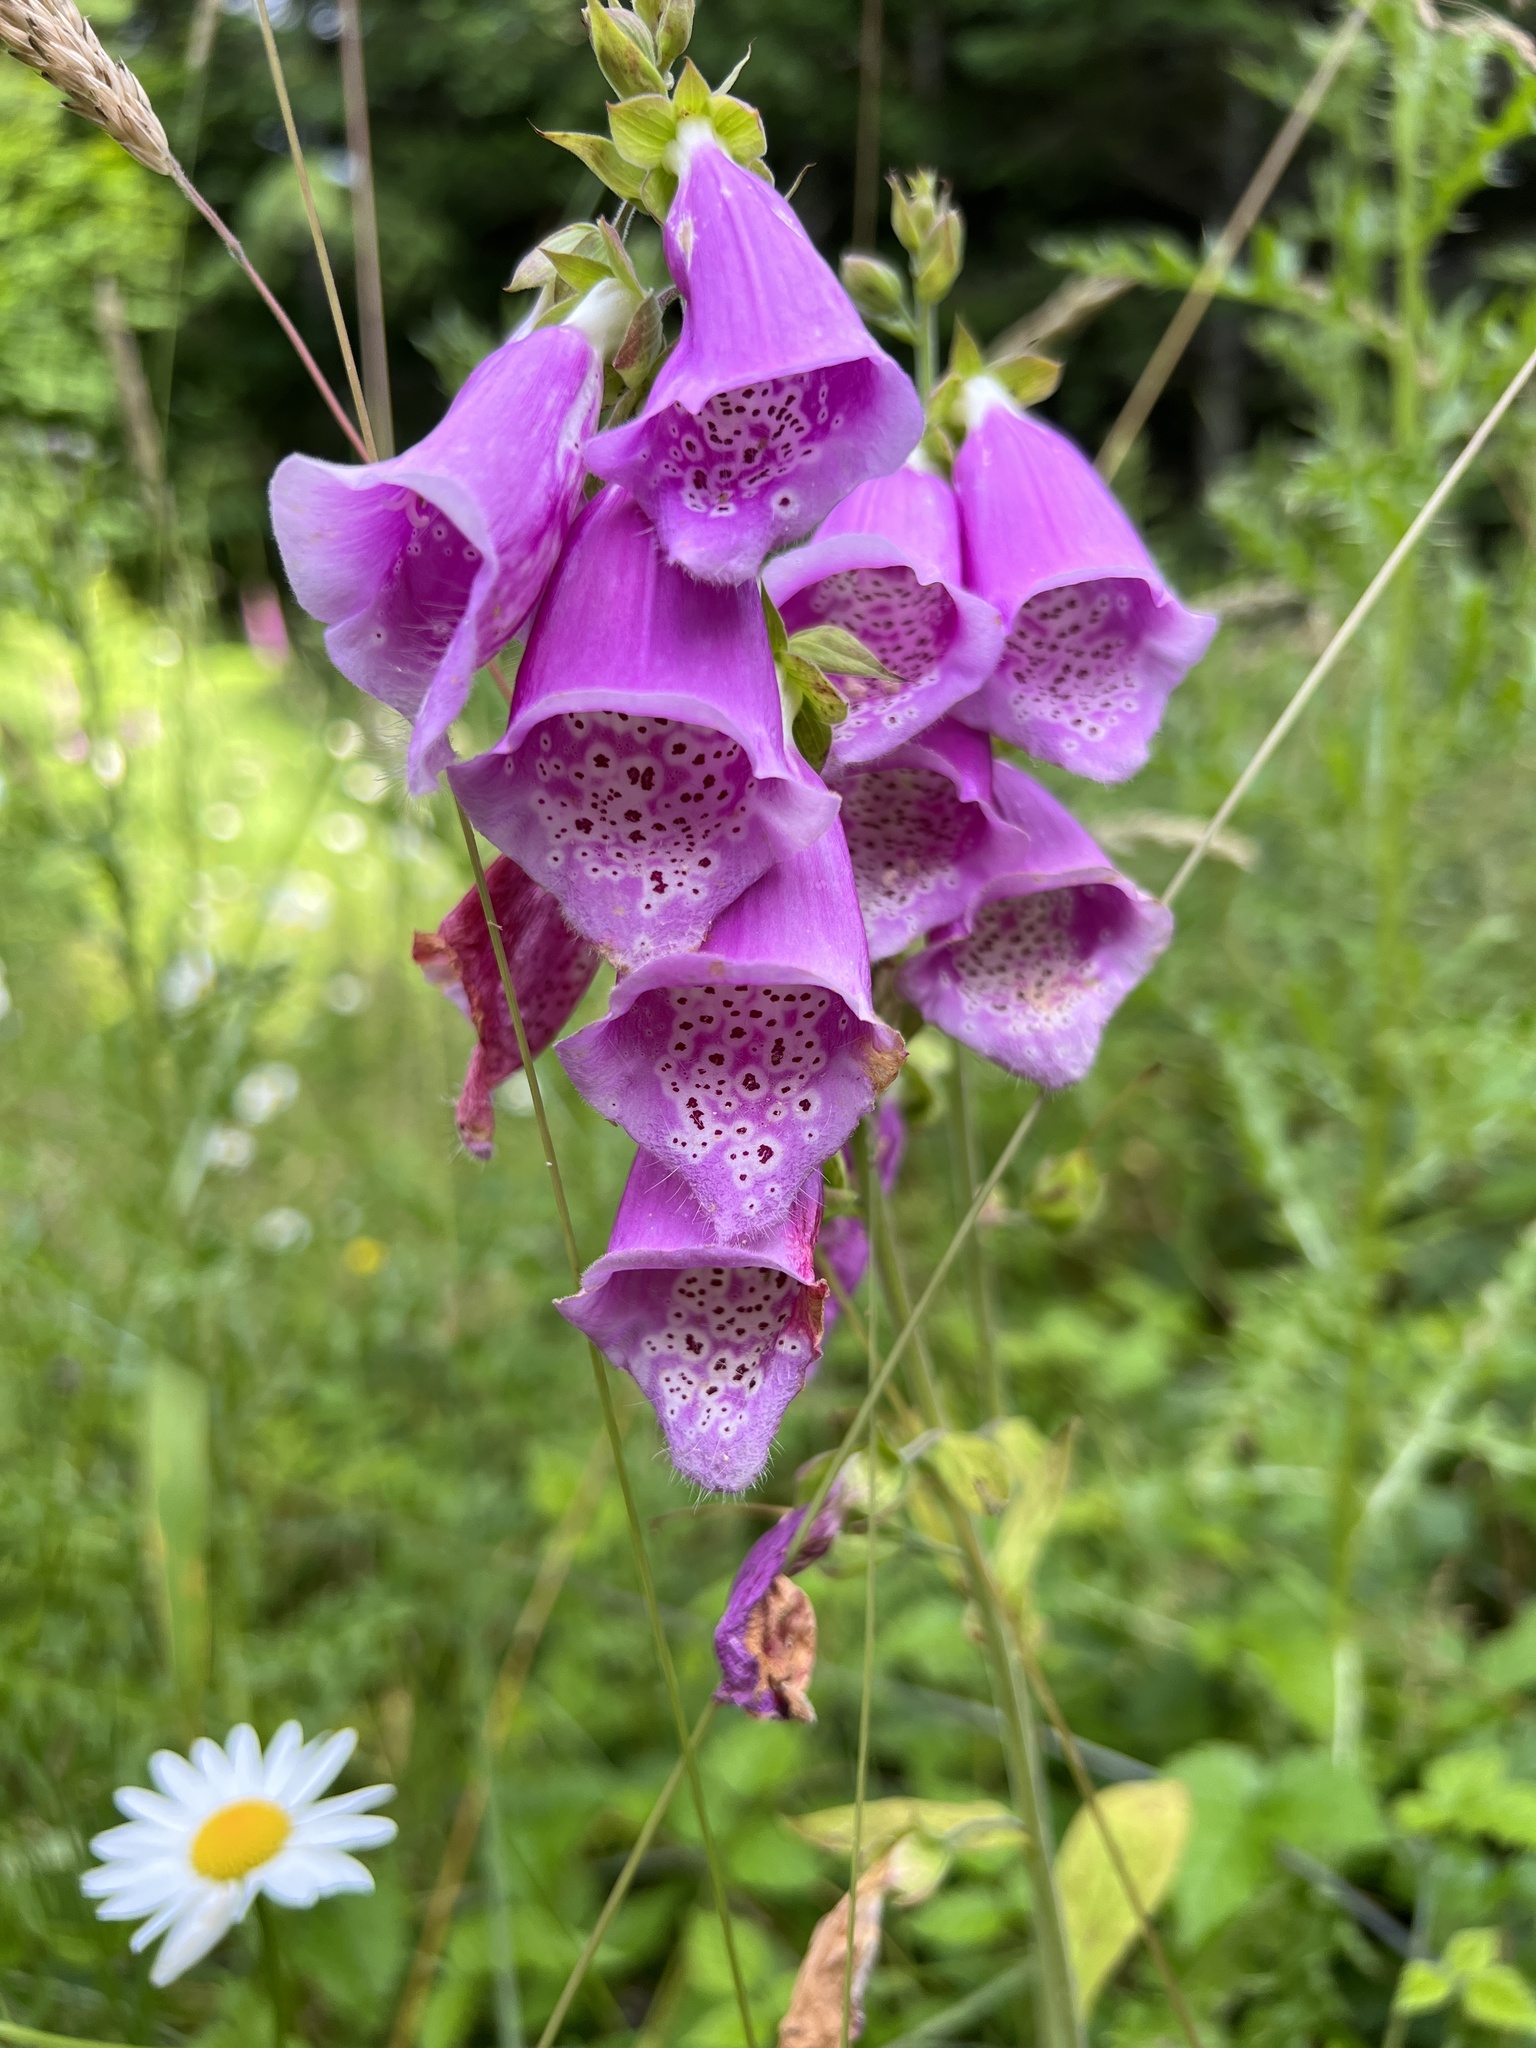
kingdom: Plantae
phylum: Tracheophyta
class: Magnoliopsida
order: Lamiales
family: Plantaginaceae
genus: Digitalis
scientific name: Digitalis purpurea
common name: Foxglove
